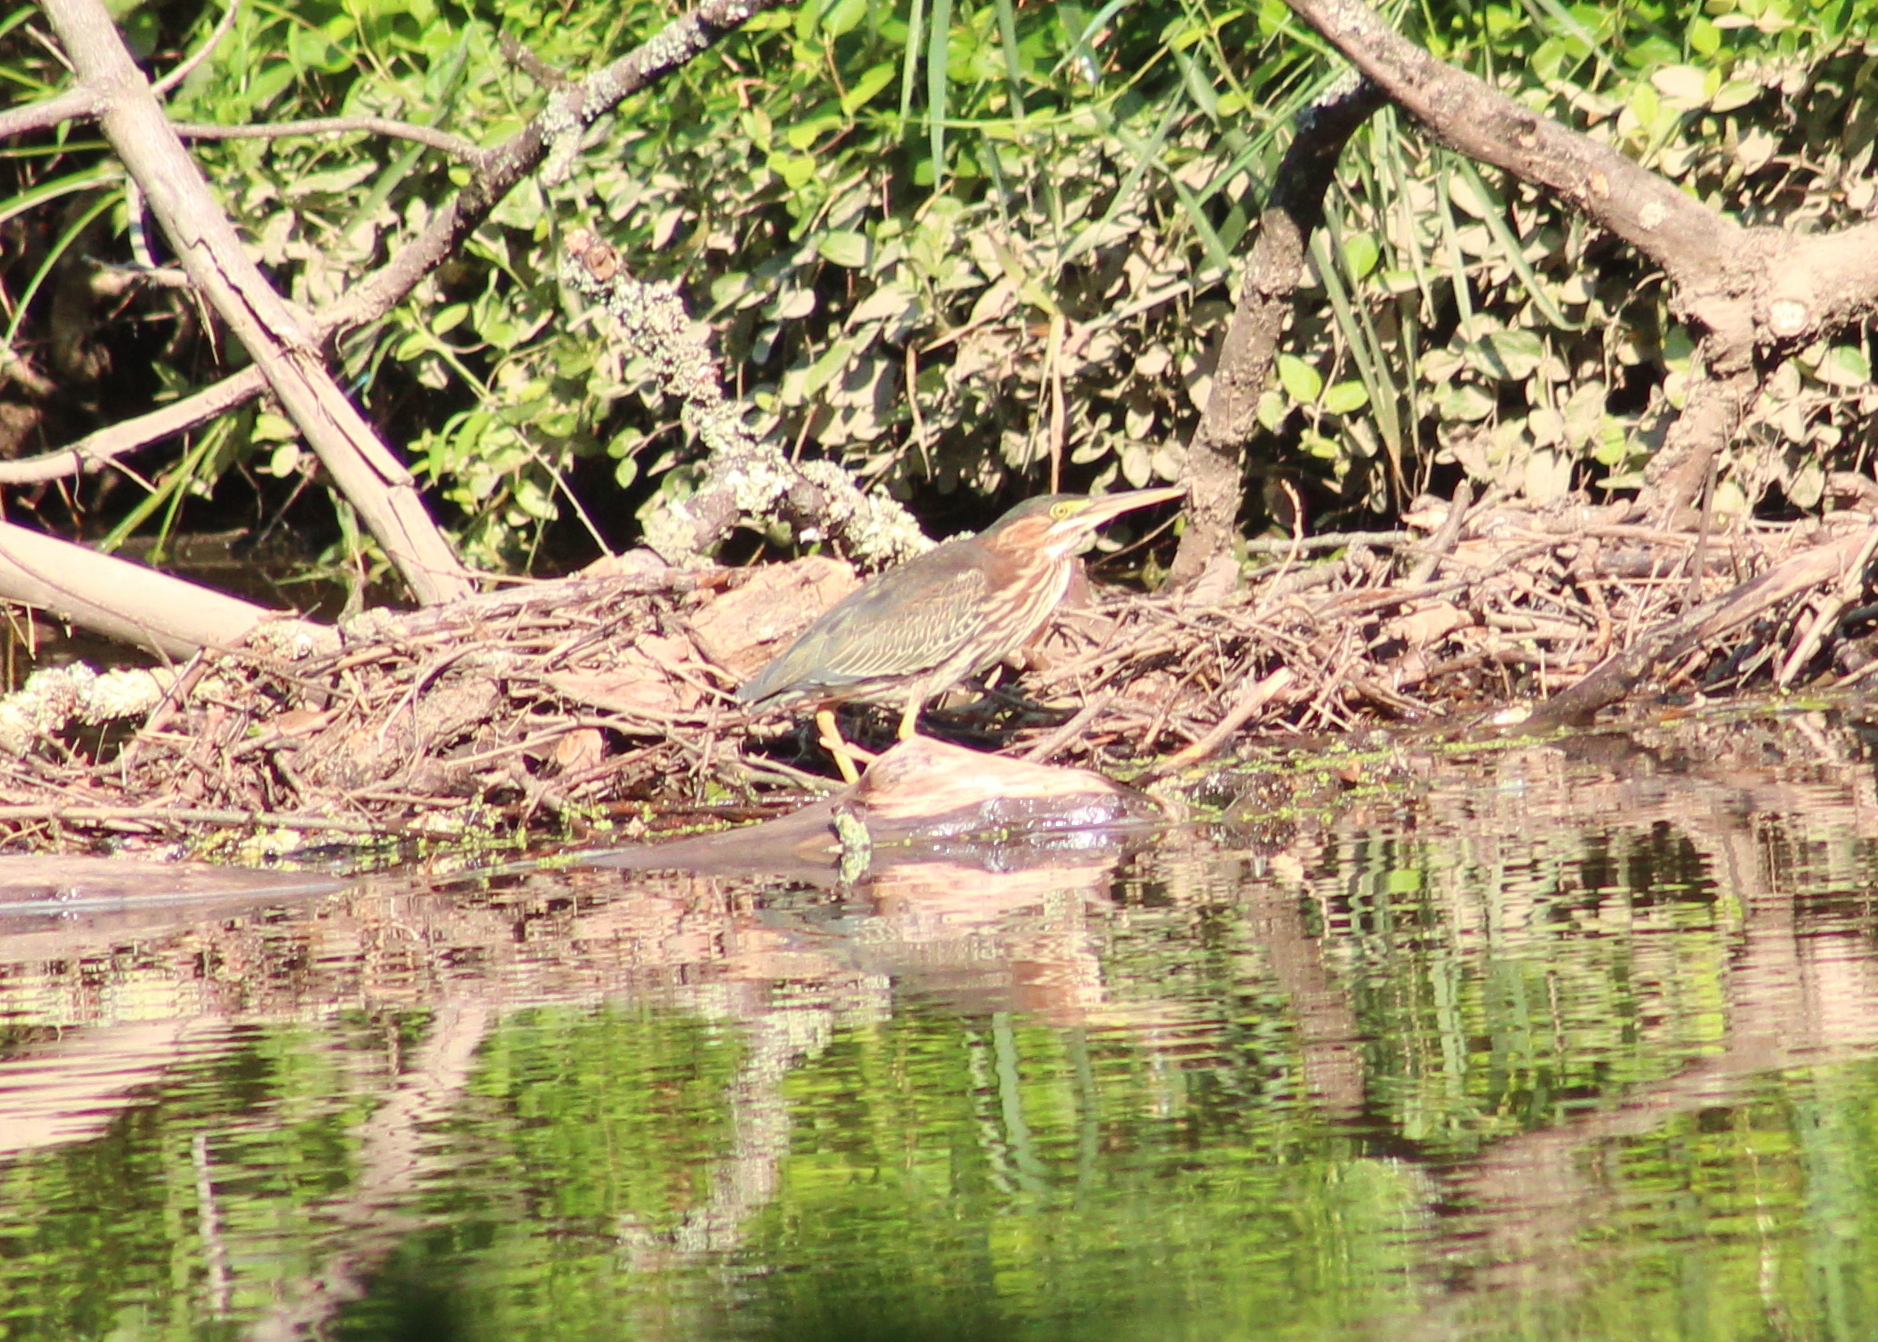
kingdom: Animalia
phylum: Chordata
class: Aves
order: Pelecaniformes
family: Ardeidae
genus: Butorides
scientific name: Butorides virescens
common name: Green heron
